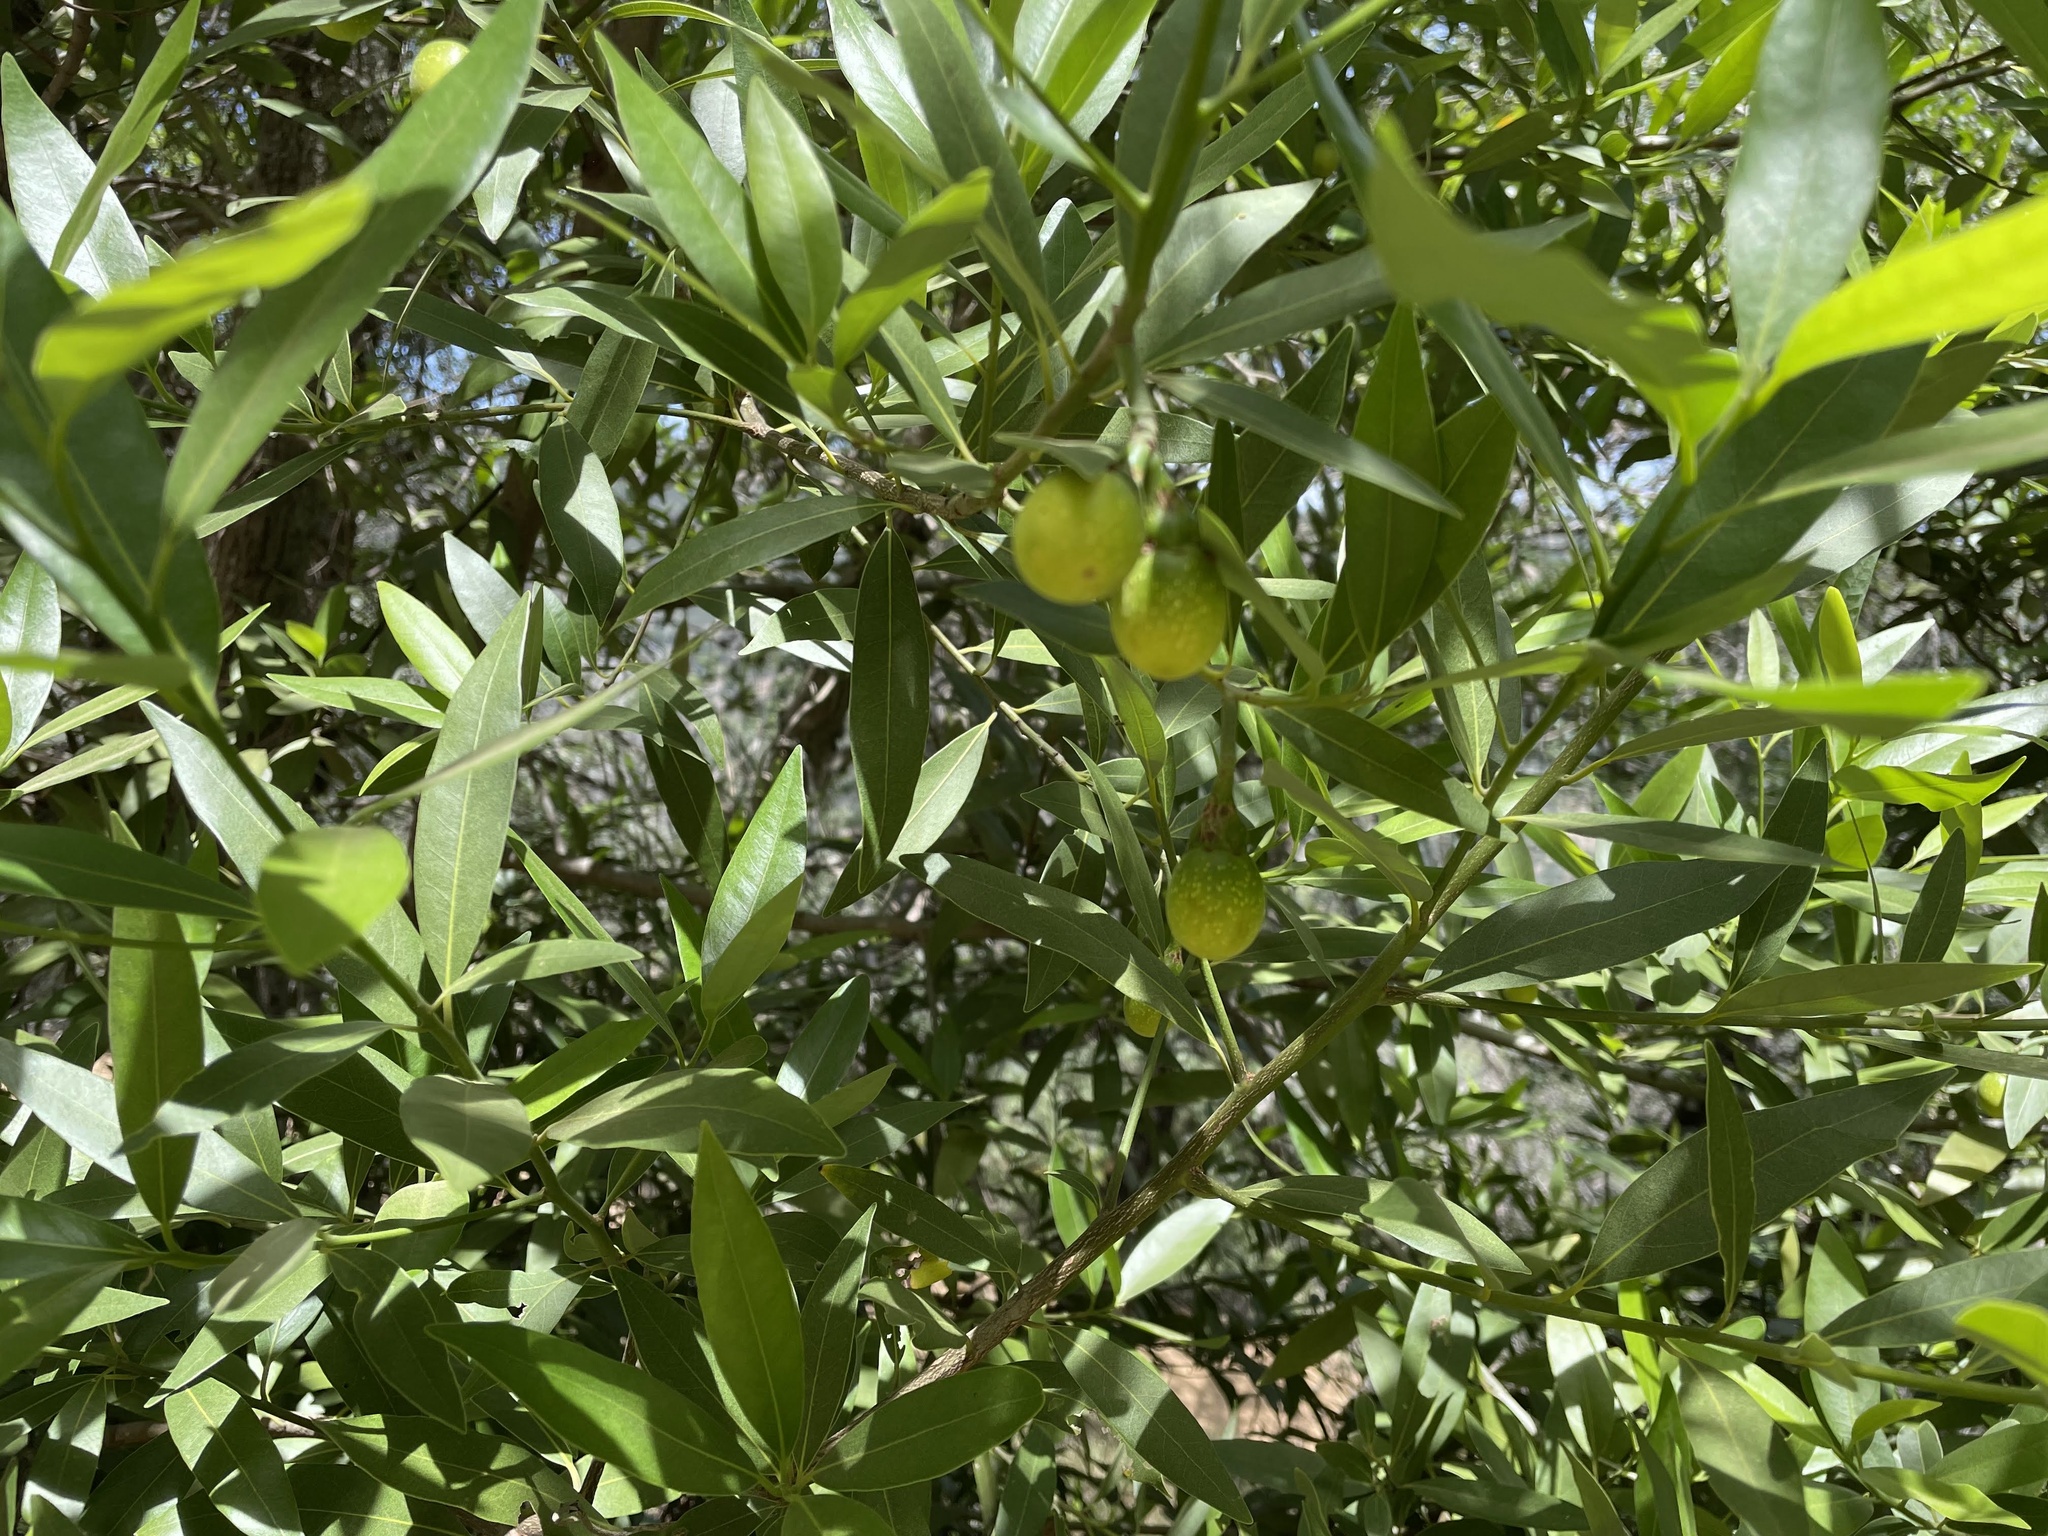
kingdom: Plantae
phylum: Tracheophyta
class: Magnoliopsida
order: Laurales
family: Lauraceae
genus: Umbellularia
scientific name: Umbellularia californica
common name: California bay
